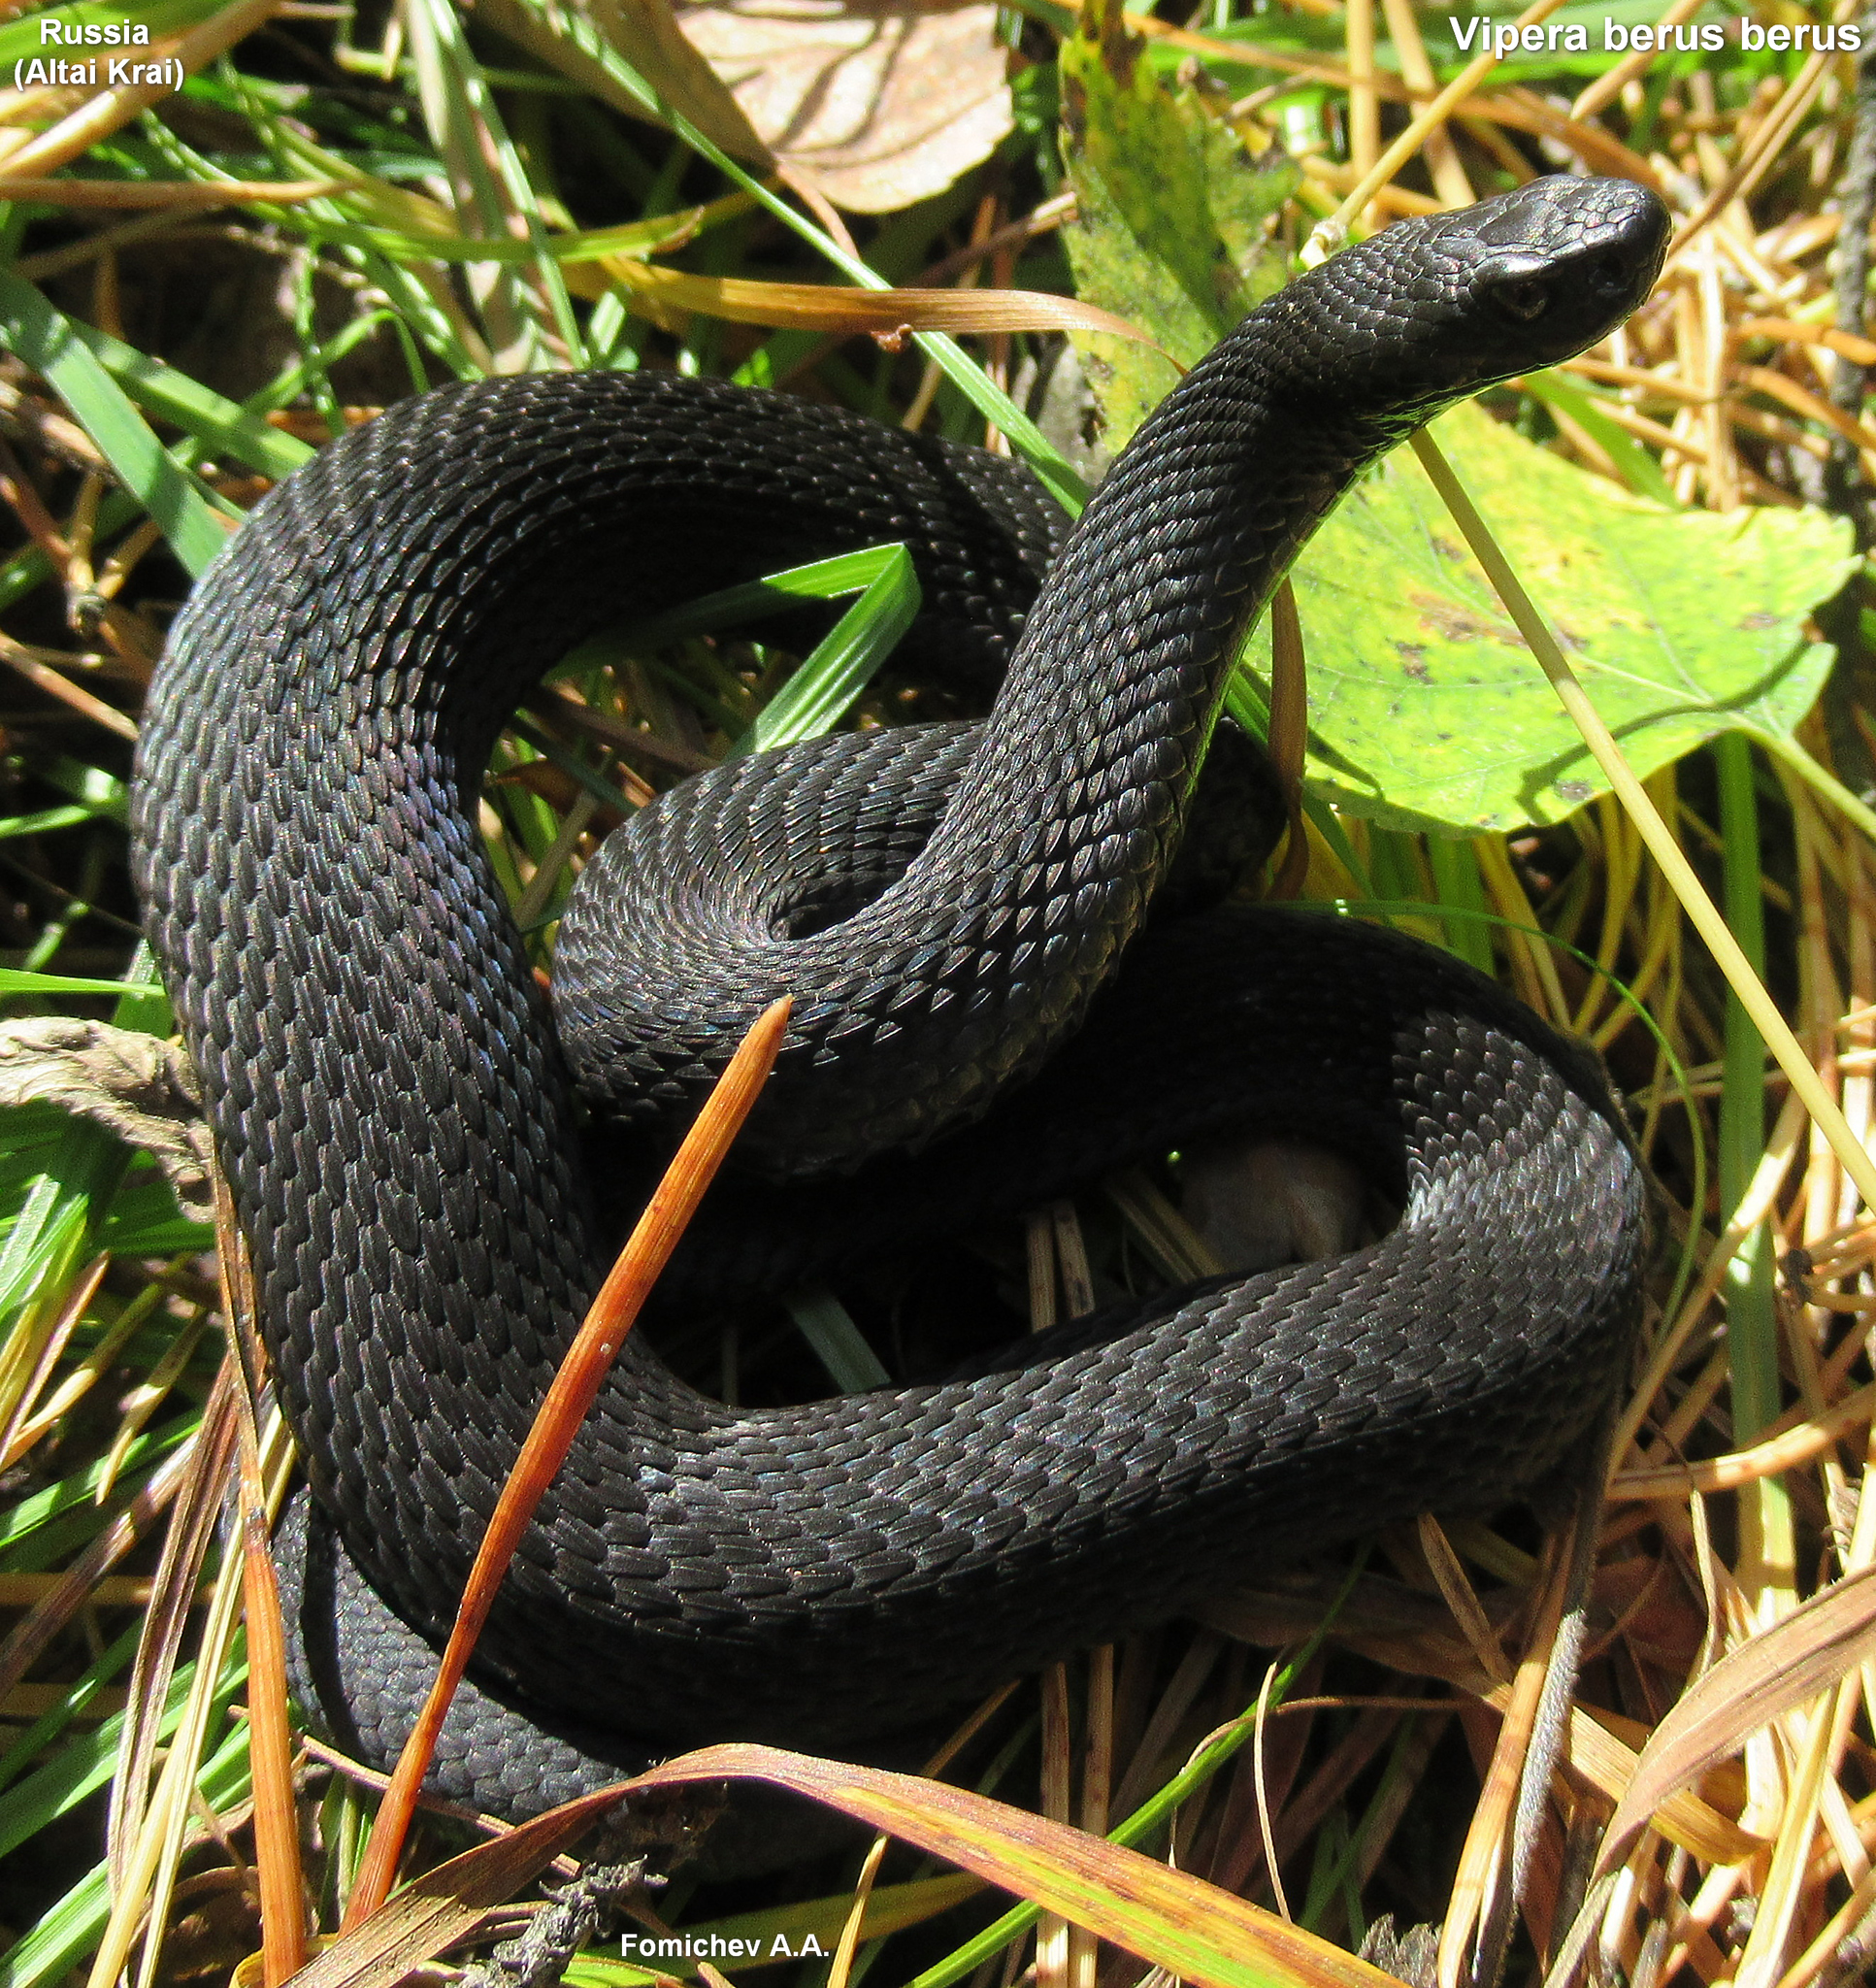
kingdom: Animalia
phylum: Chordata
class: Squamata
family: Viperidae
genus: Vipera
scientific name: Vipera berus
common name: Adder
